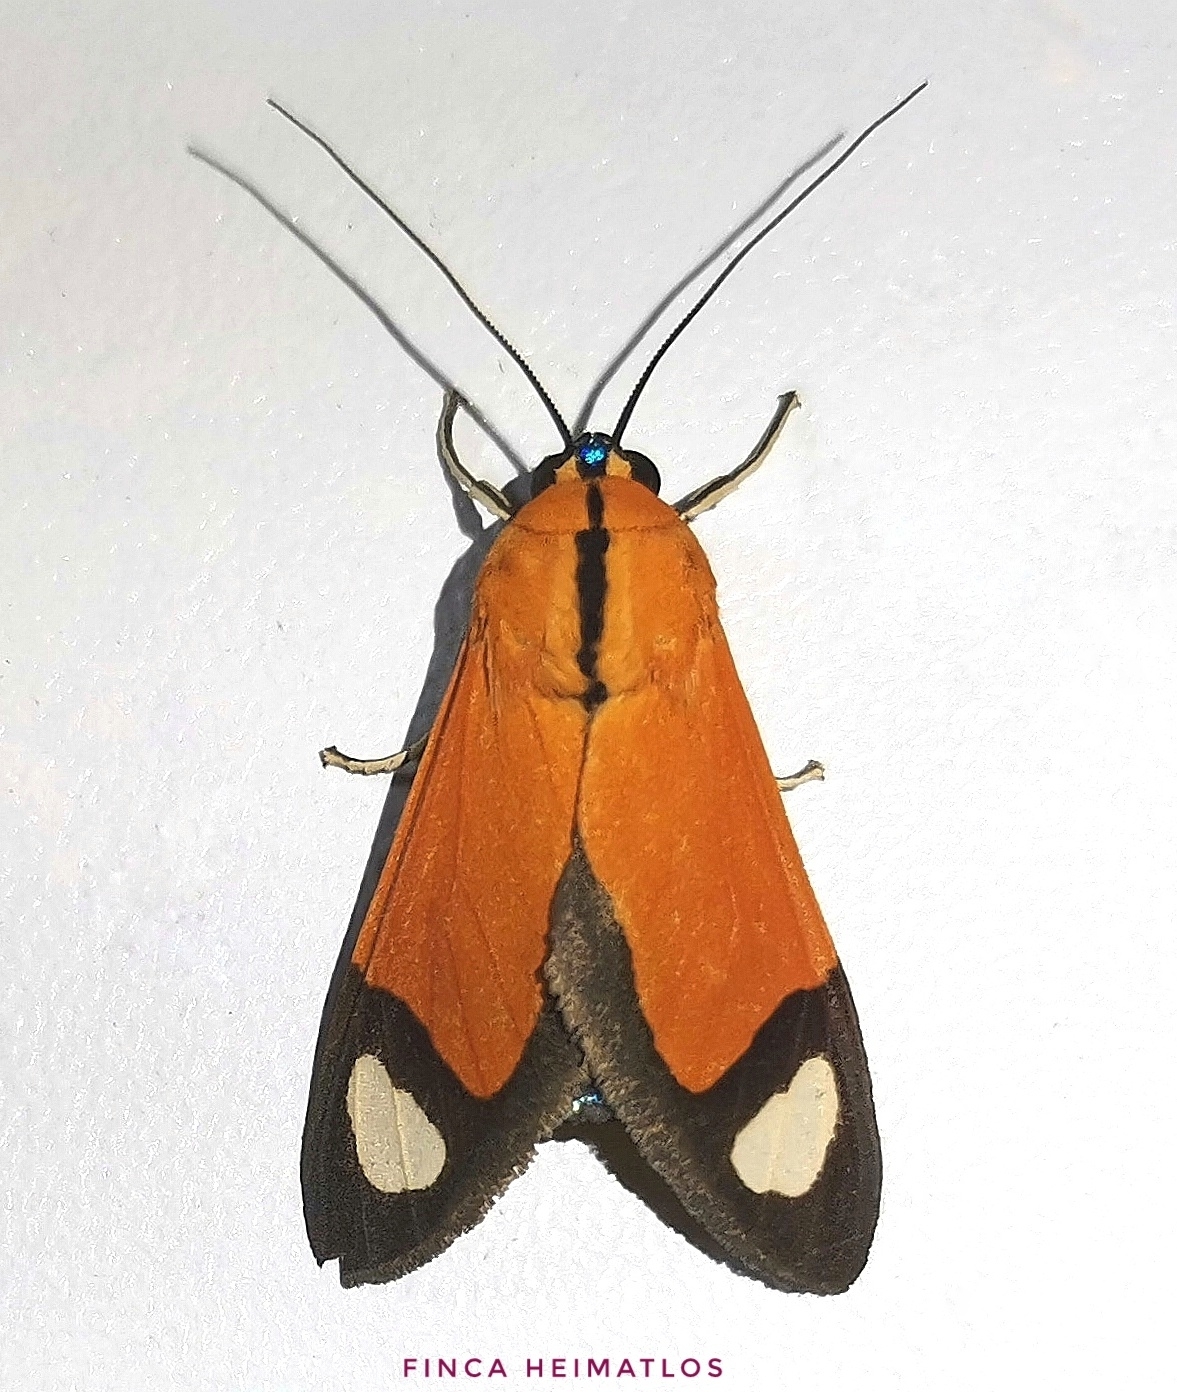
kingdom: Animalia
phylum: Arthropoda
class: Insecta
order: Lepidoptera
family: Erebidae
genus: Ormetica
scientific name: Ormetica contraria
